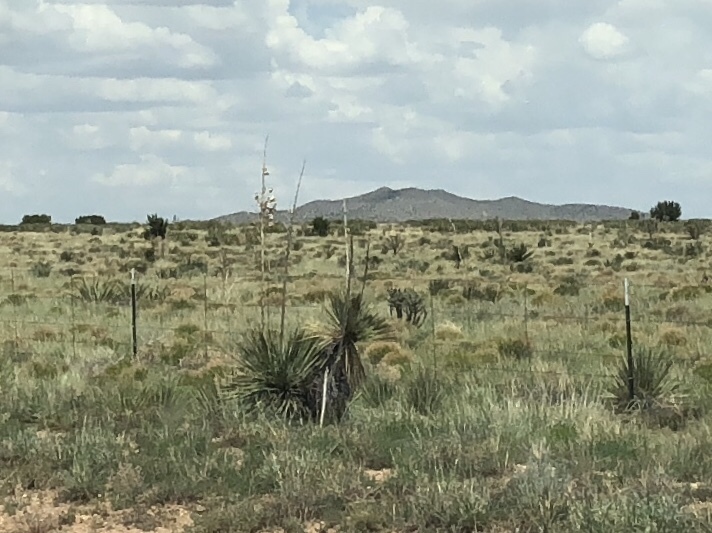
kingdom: Plantae
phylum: Tracheophyta
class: Liliopsida
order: Asparagales
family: Asparagaceae
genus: Yucca
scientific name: Yucca elata
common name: Palmella
